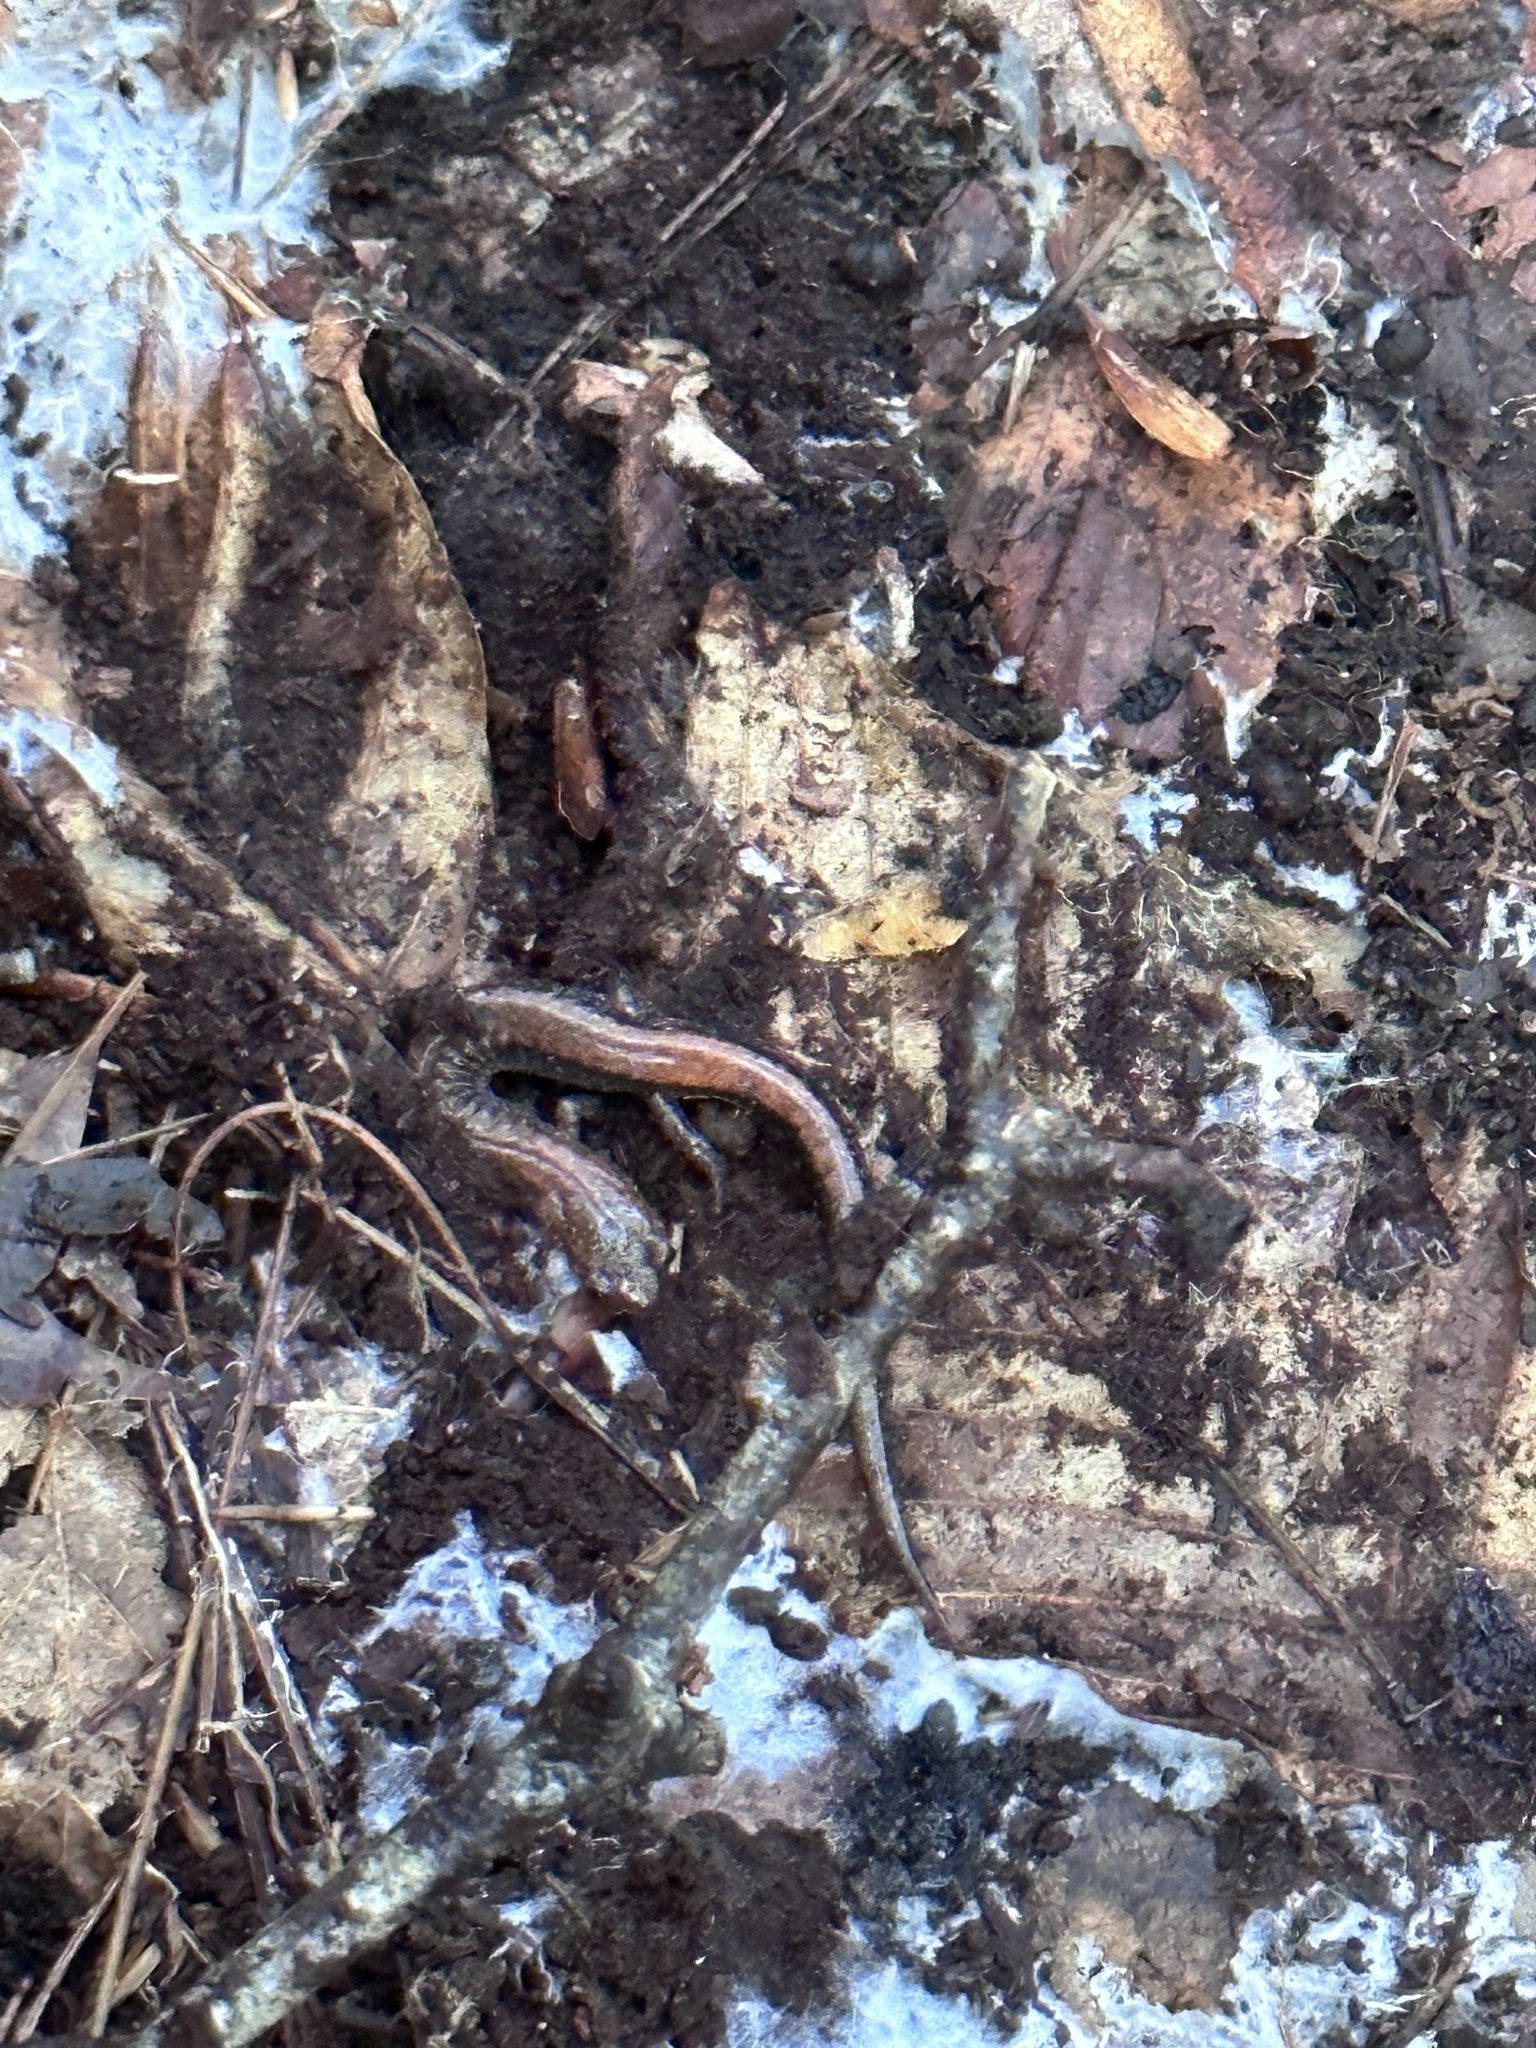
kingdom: Animalia
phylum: Chordata
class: Amphibia
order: Caudata
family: Plethodontidae
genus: Plethodon
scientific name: Plethodon cinereus
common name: Redback salamander
